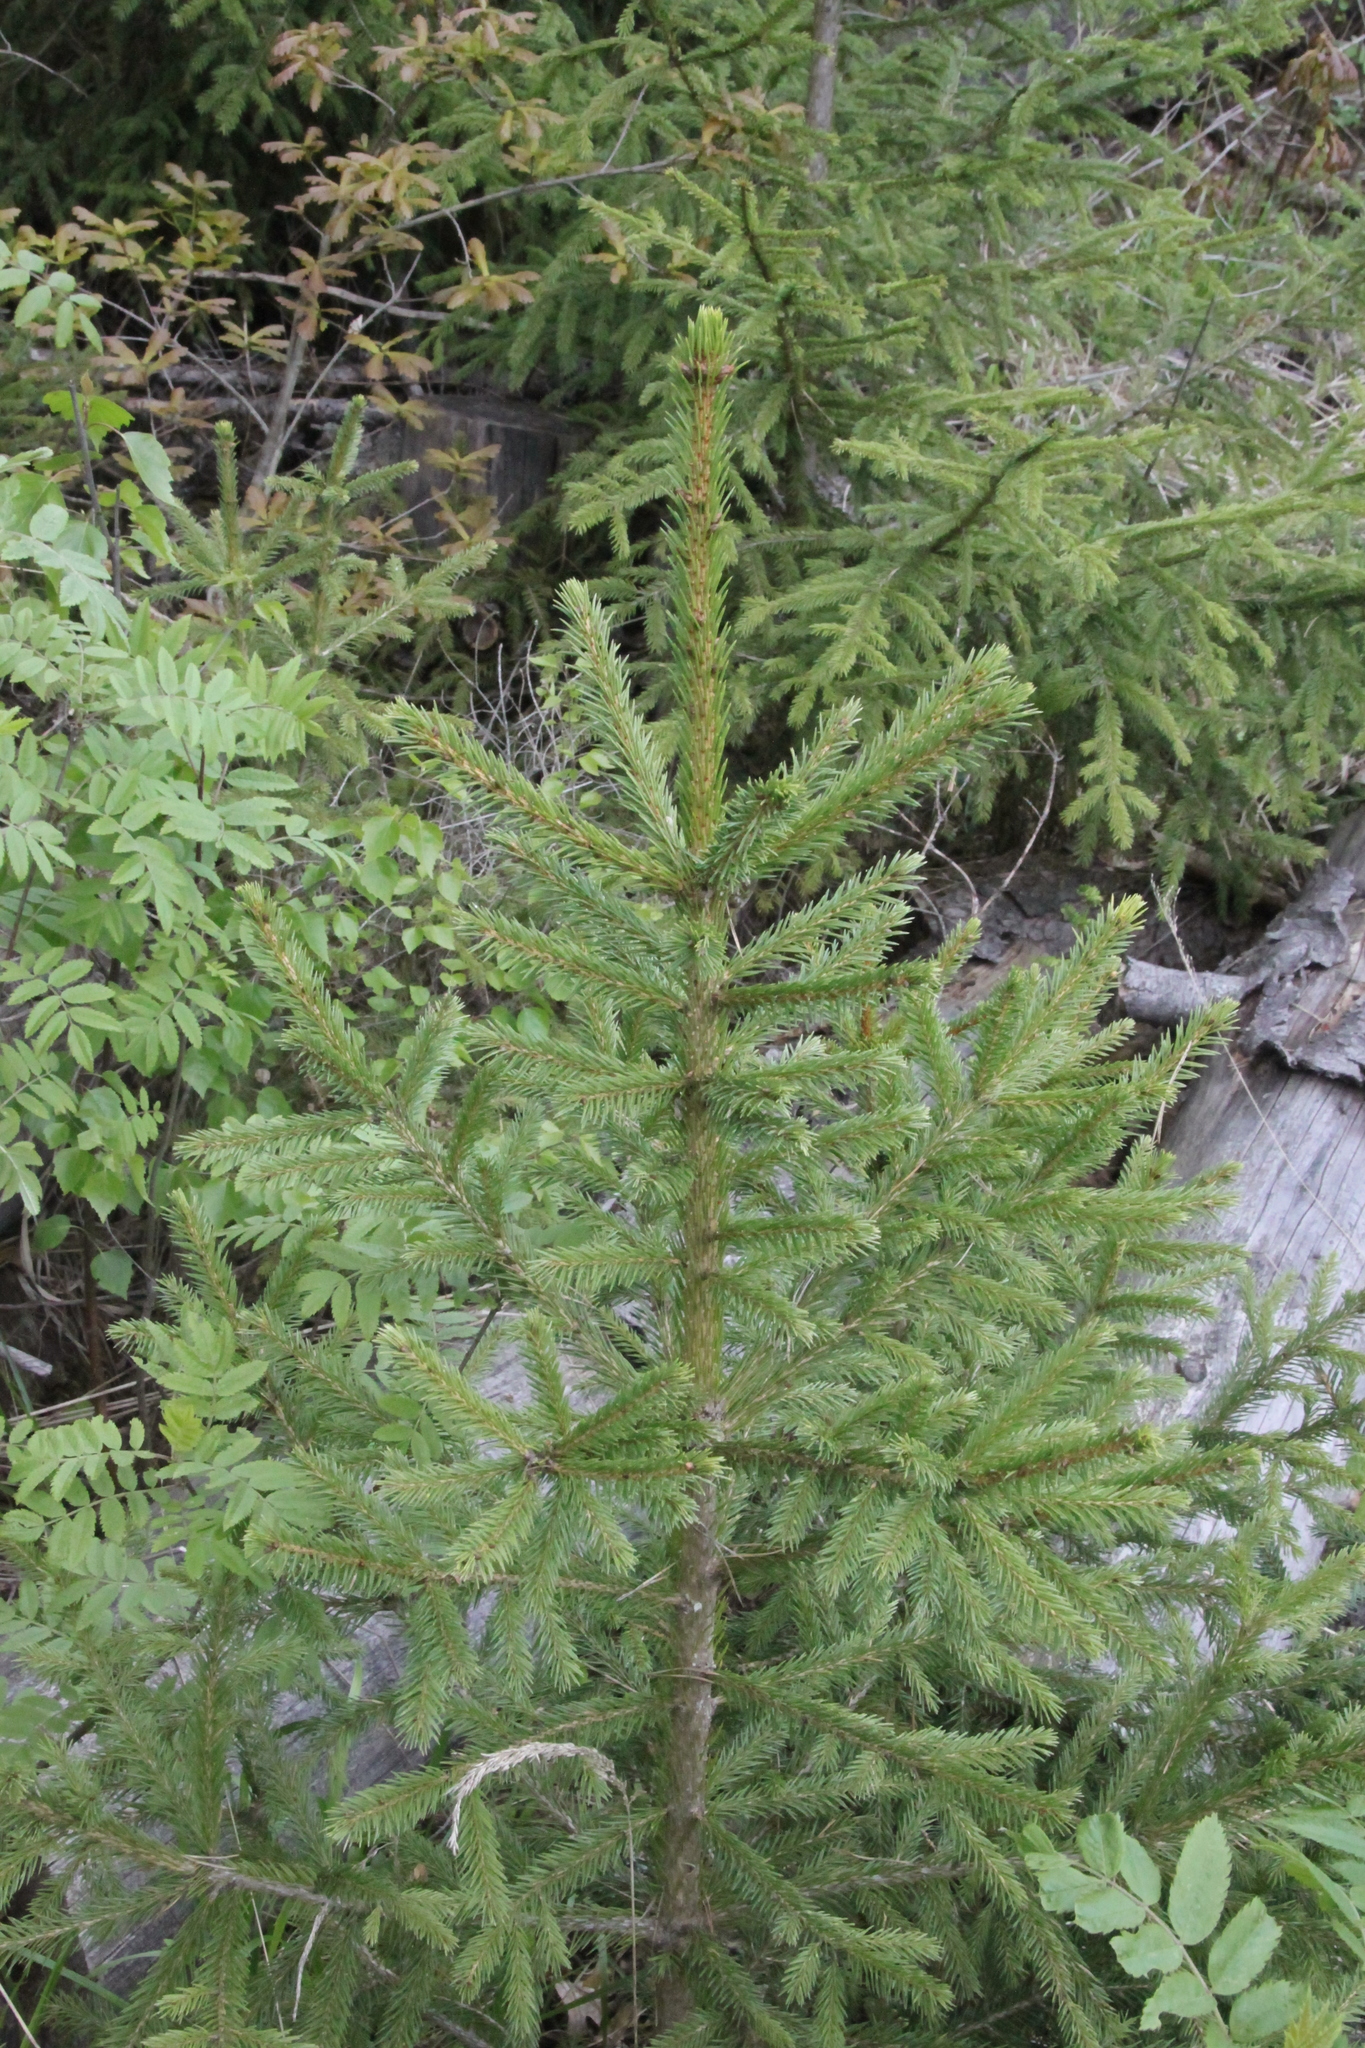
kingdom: Plantae
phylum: Tracheophyta
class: Pinopsida
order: Pinales
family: Pinaceae
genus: Picea
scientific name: Picea abies
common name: Norway spruce
